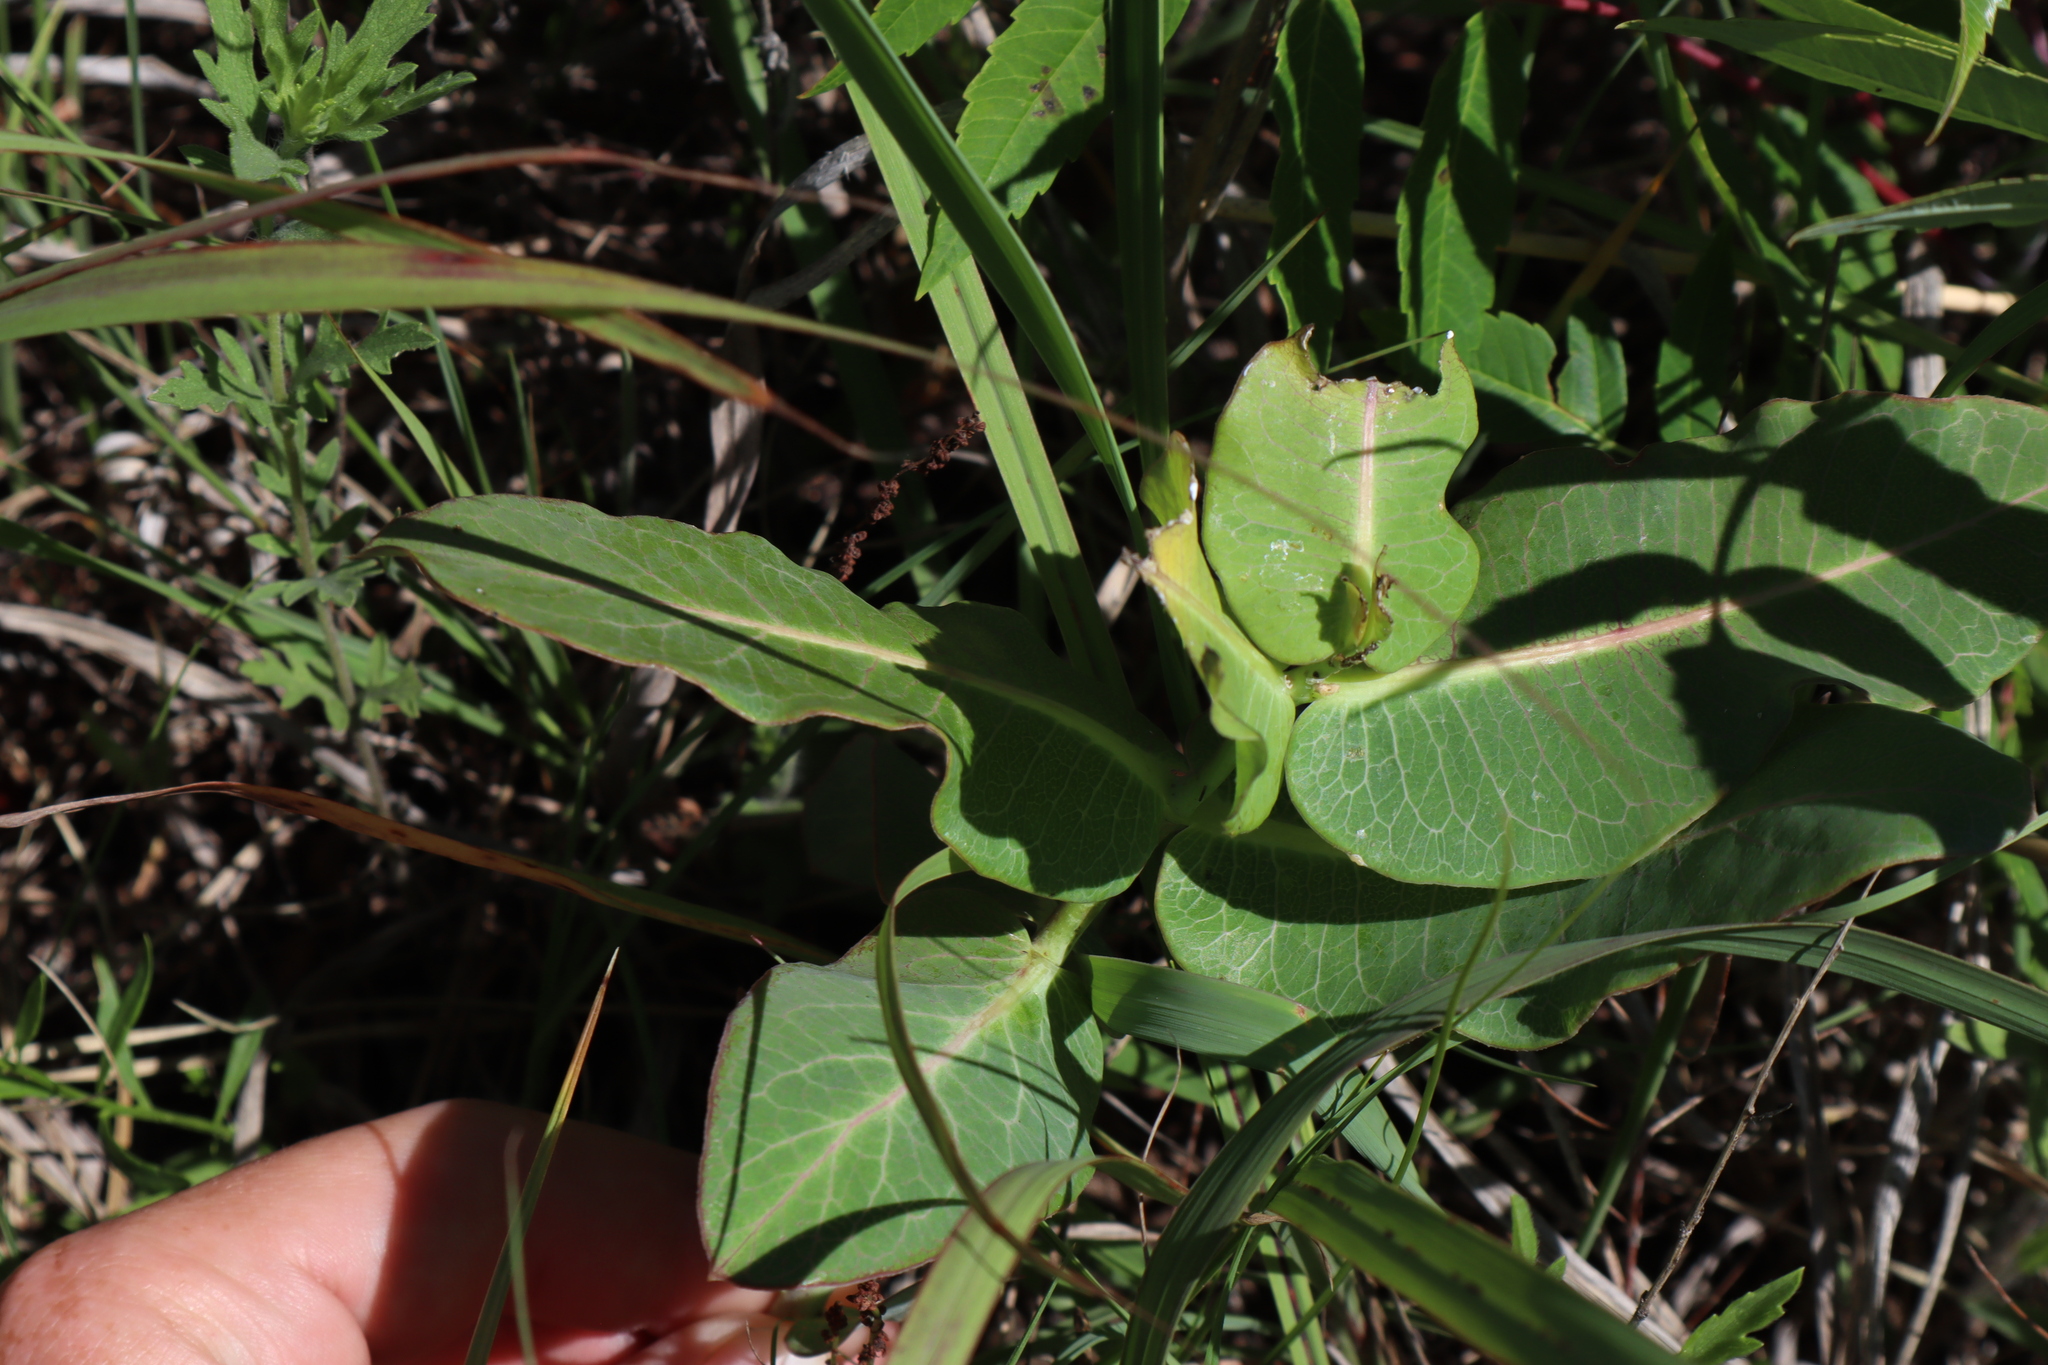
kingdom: Plantae
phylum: Tracheophyta
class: Magnoliopsida
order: Gentianales
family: Apocynaceae
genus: Asclepias
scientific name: Asclepias amplexicaulis
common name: Blunt-leaf milkweed
